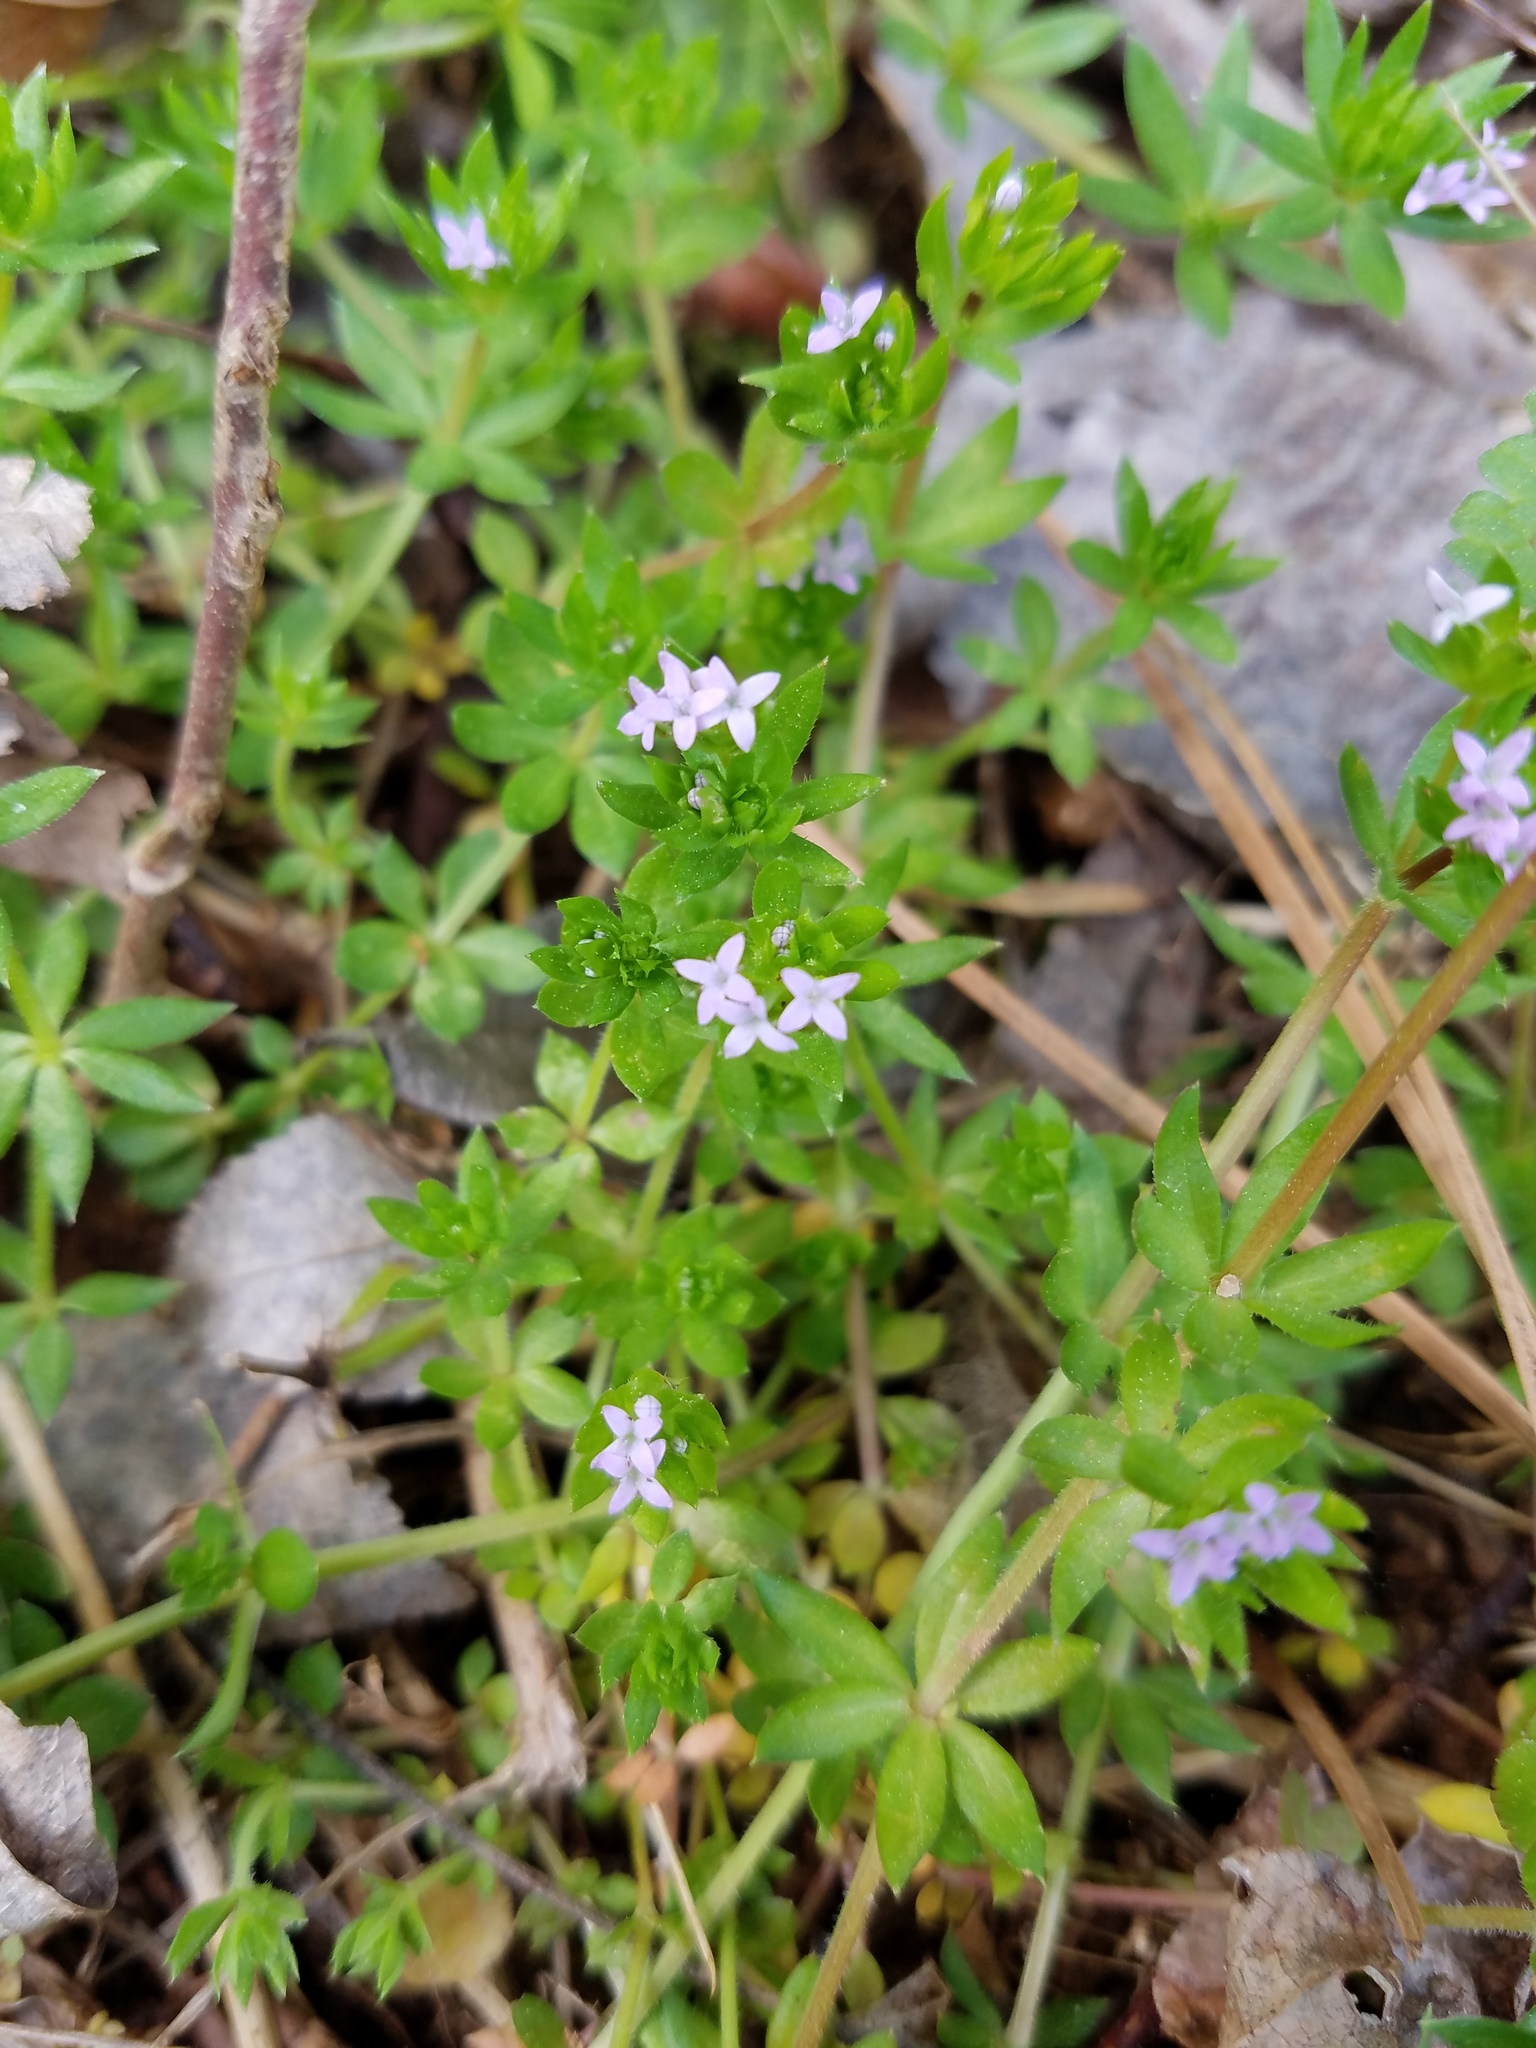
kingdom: Plantae
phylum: Tracheophyta
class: Magnoliopsida
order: Gentianales
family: Rubiaceae
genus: Sherardia
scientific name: Sherardia arvensis
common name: Field madder
